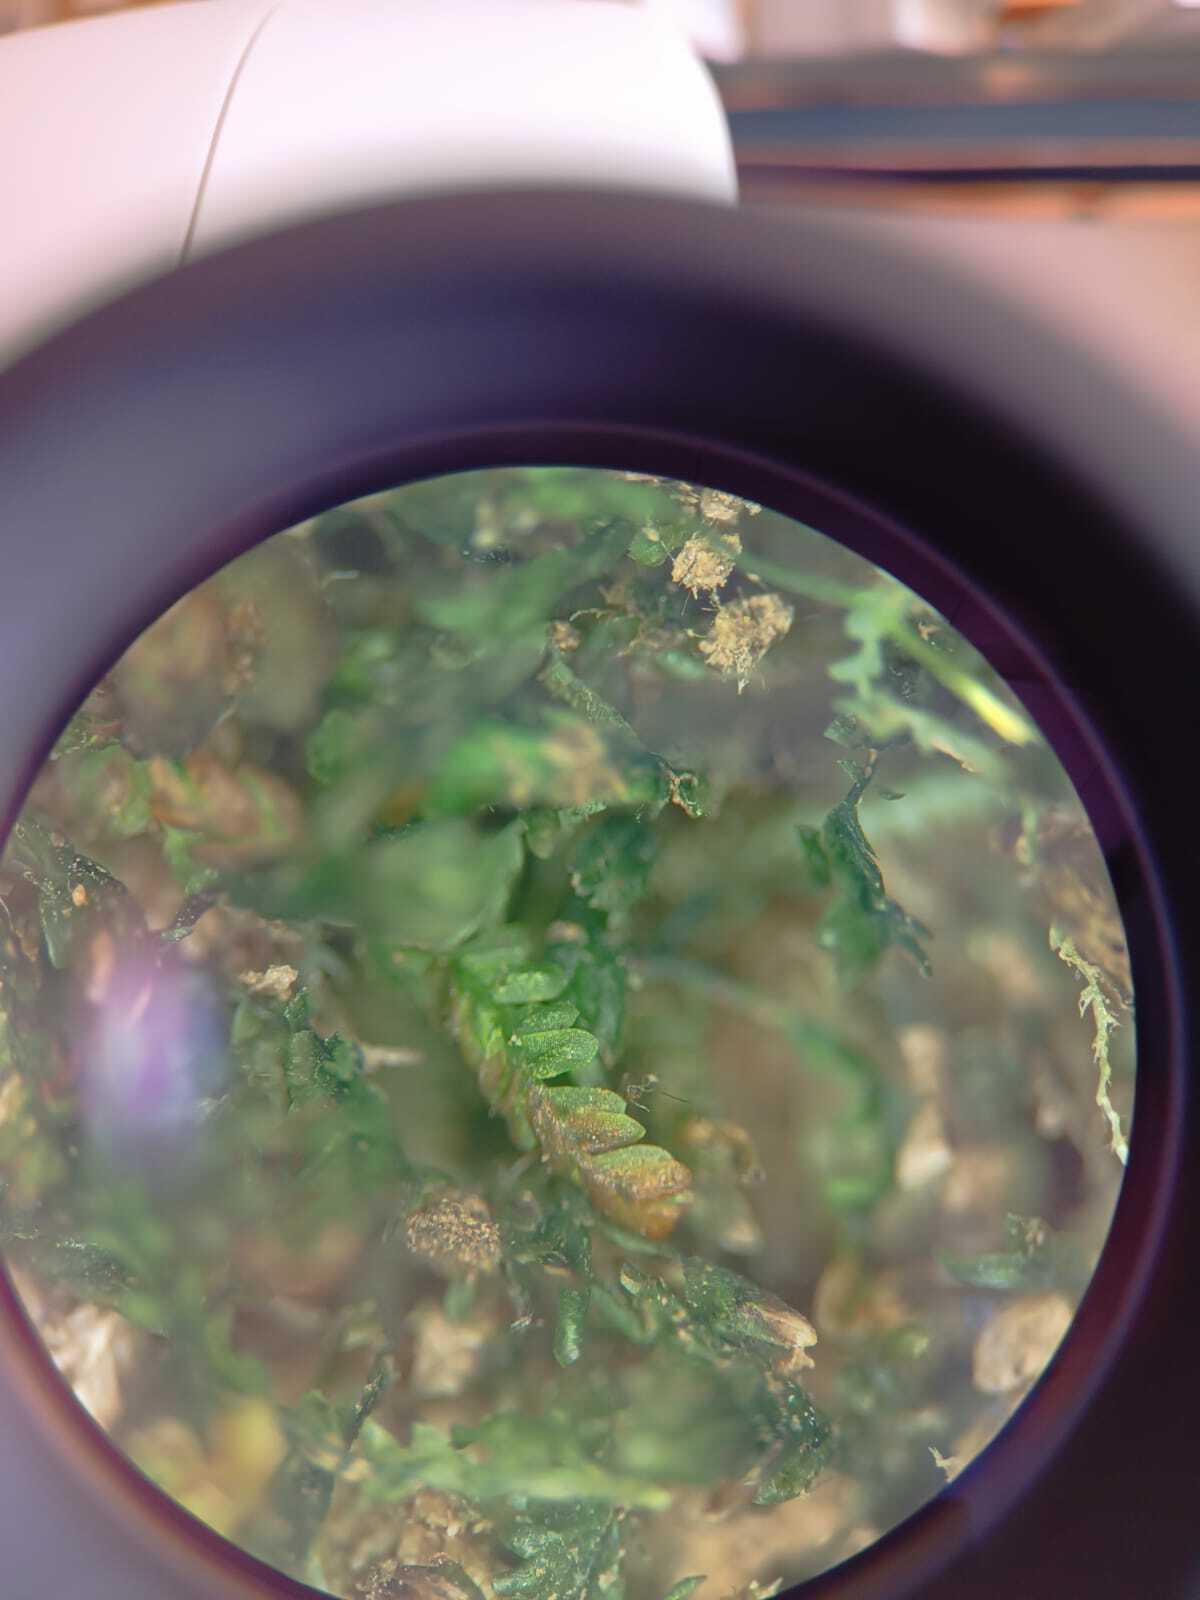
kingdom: Plantae
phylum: Bryophyta
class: Bryopsida
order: Pottiales
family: Mitteniaceae
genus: Mittenia
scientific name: Mittenia plumula
